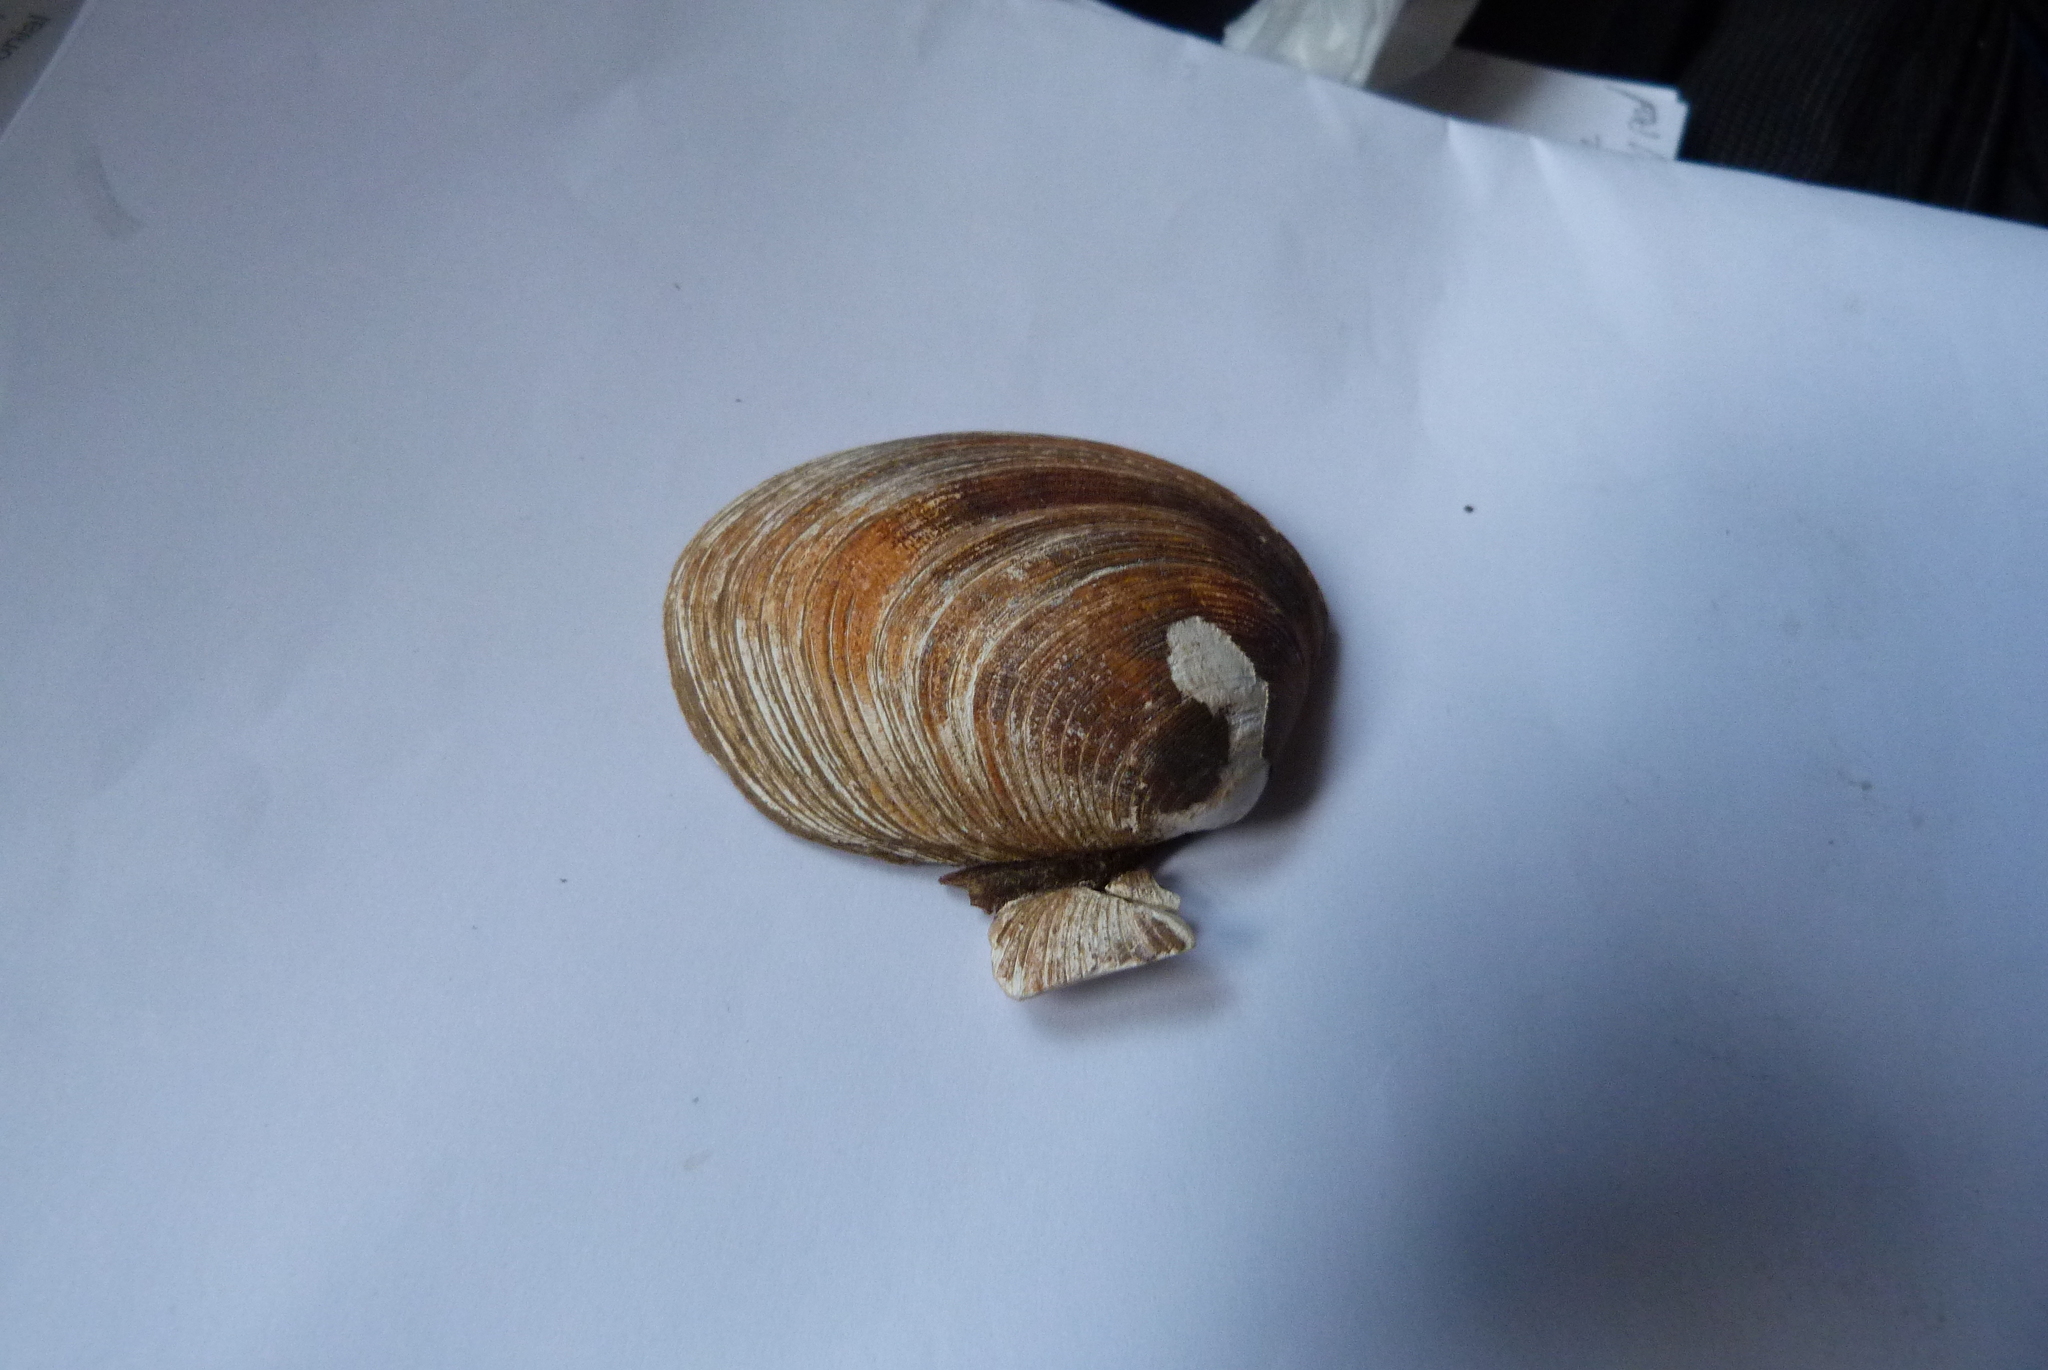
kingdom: Animalia
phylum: Mollusca
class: Bivalvia
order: Venerida
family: Veneridae
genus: Venerupis
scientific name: Venerupis largillierti
